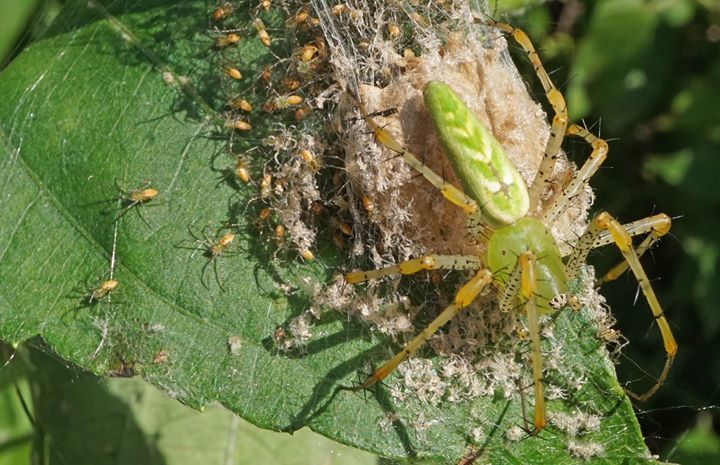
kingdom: Animalia
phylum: Arthropoda
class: Arachnida
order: Araneae
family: Oxyopidae
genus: Peucetia
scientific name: Peucetia viridans
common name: Lynx spiders
